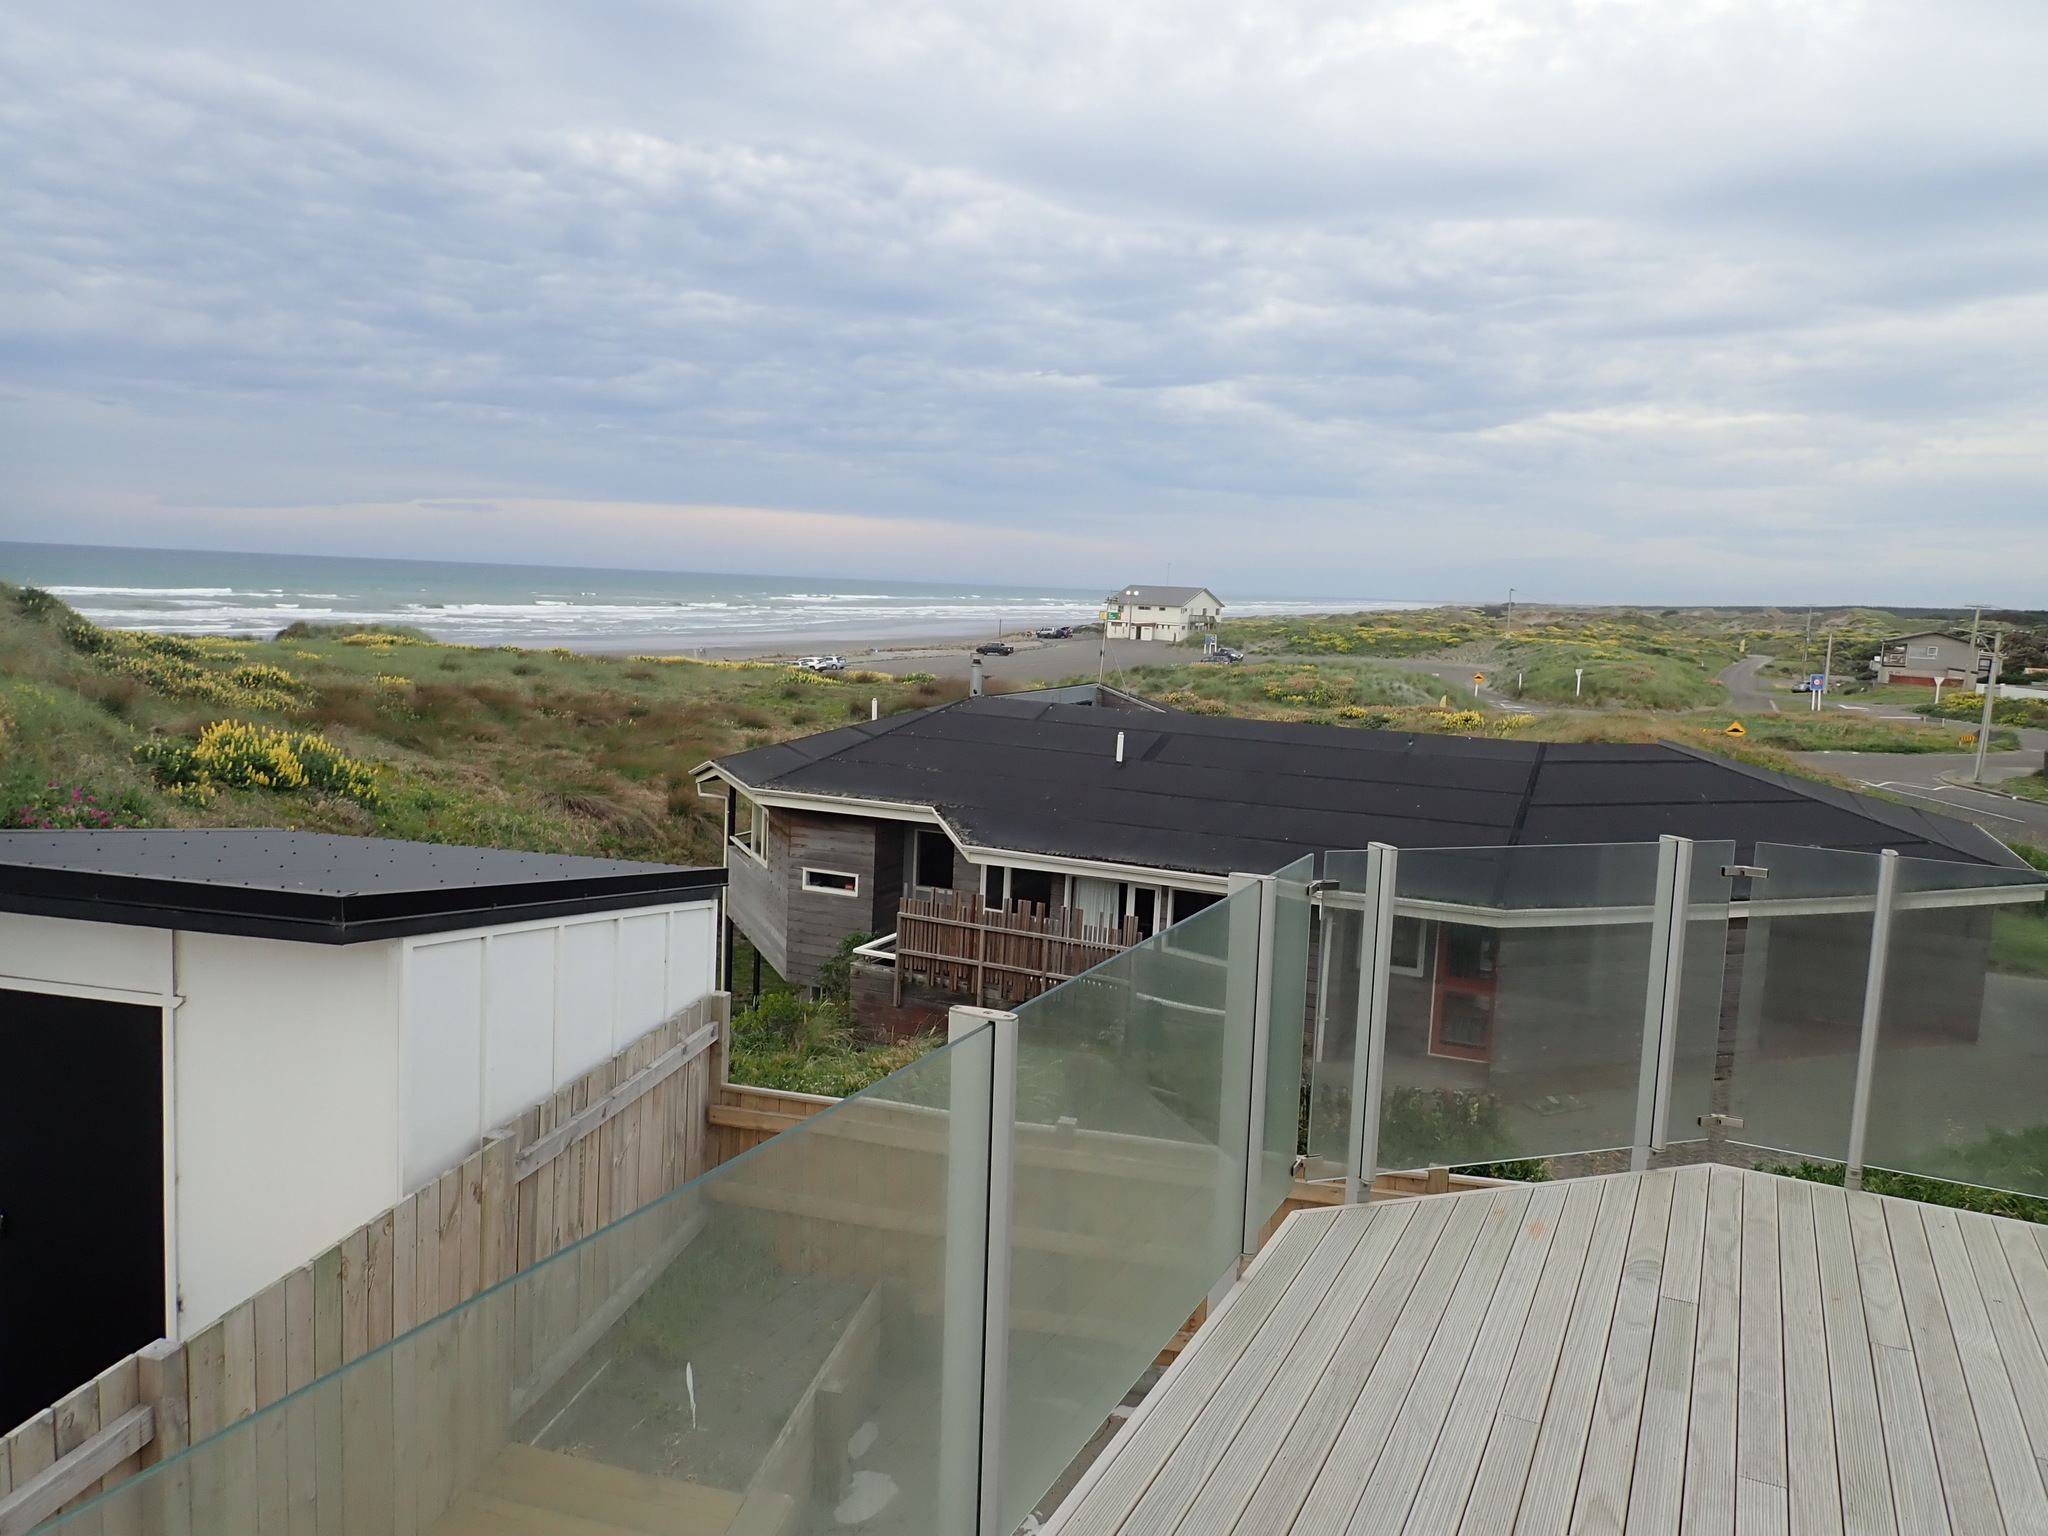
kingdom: Animalia
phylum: Mollusca
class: Gastropoda
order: Littorinimorpha
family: Struthiolariidae
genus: Struthiolaria
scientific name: Struthiolaria papulosa
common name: Large ostrich foot
